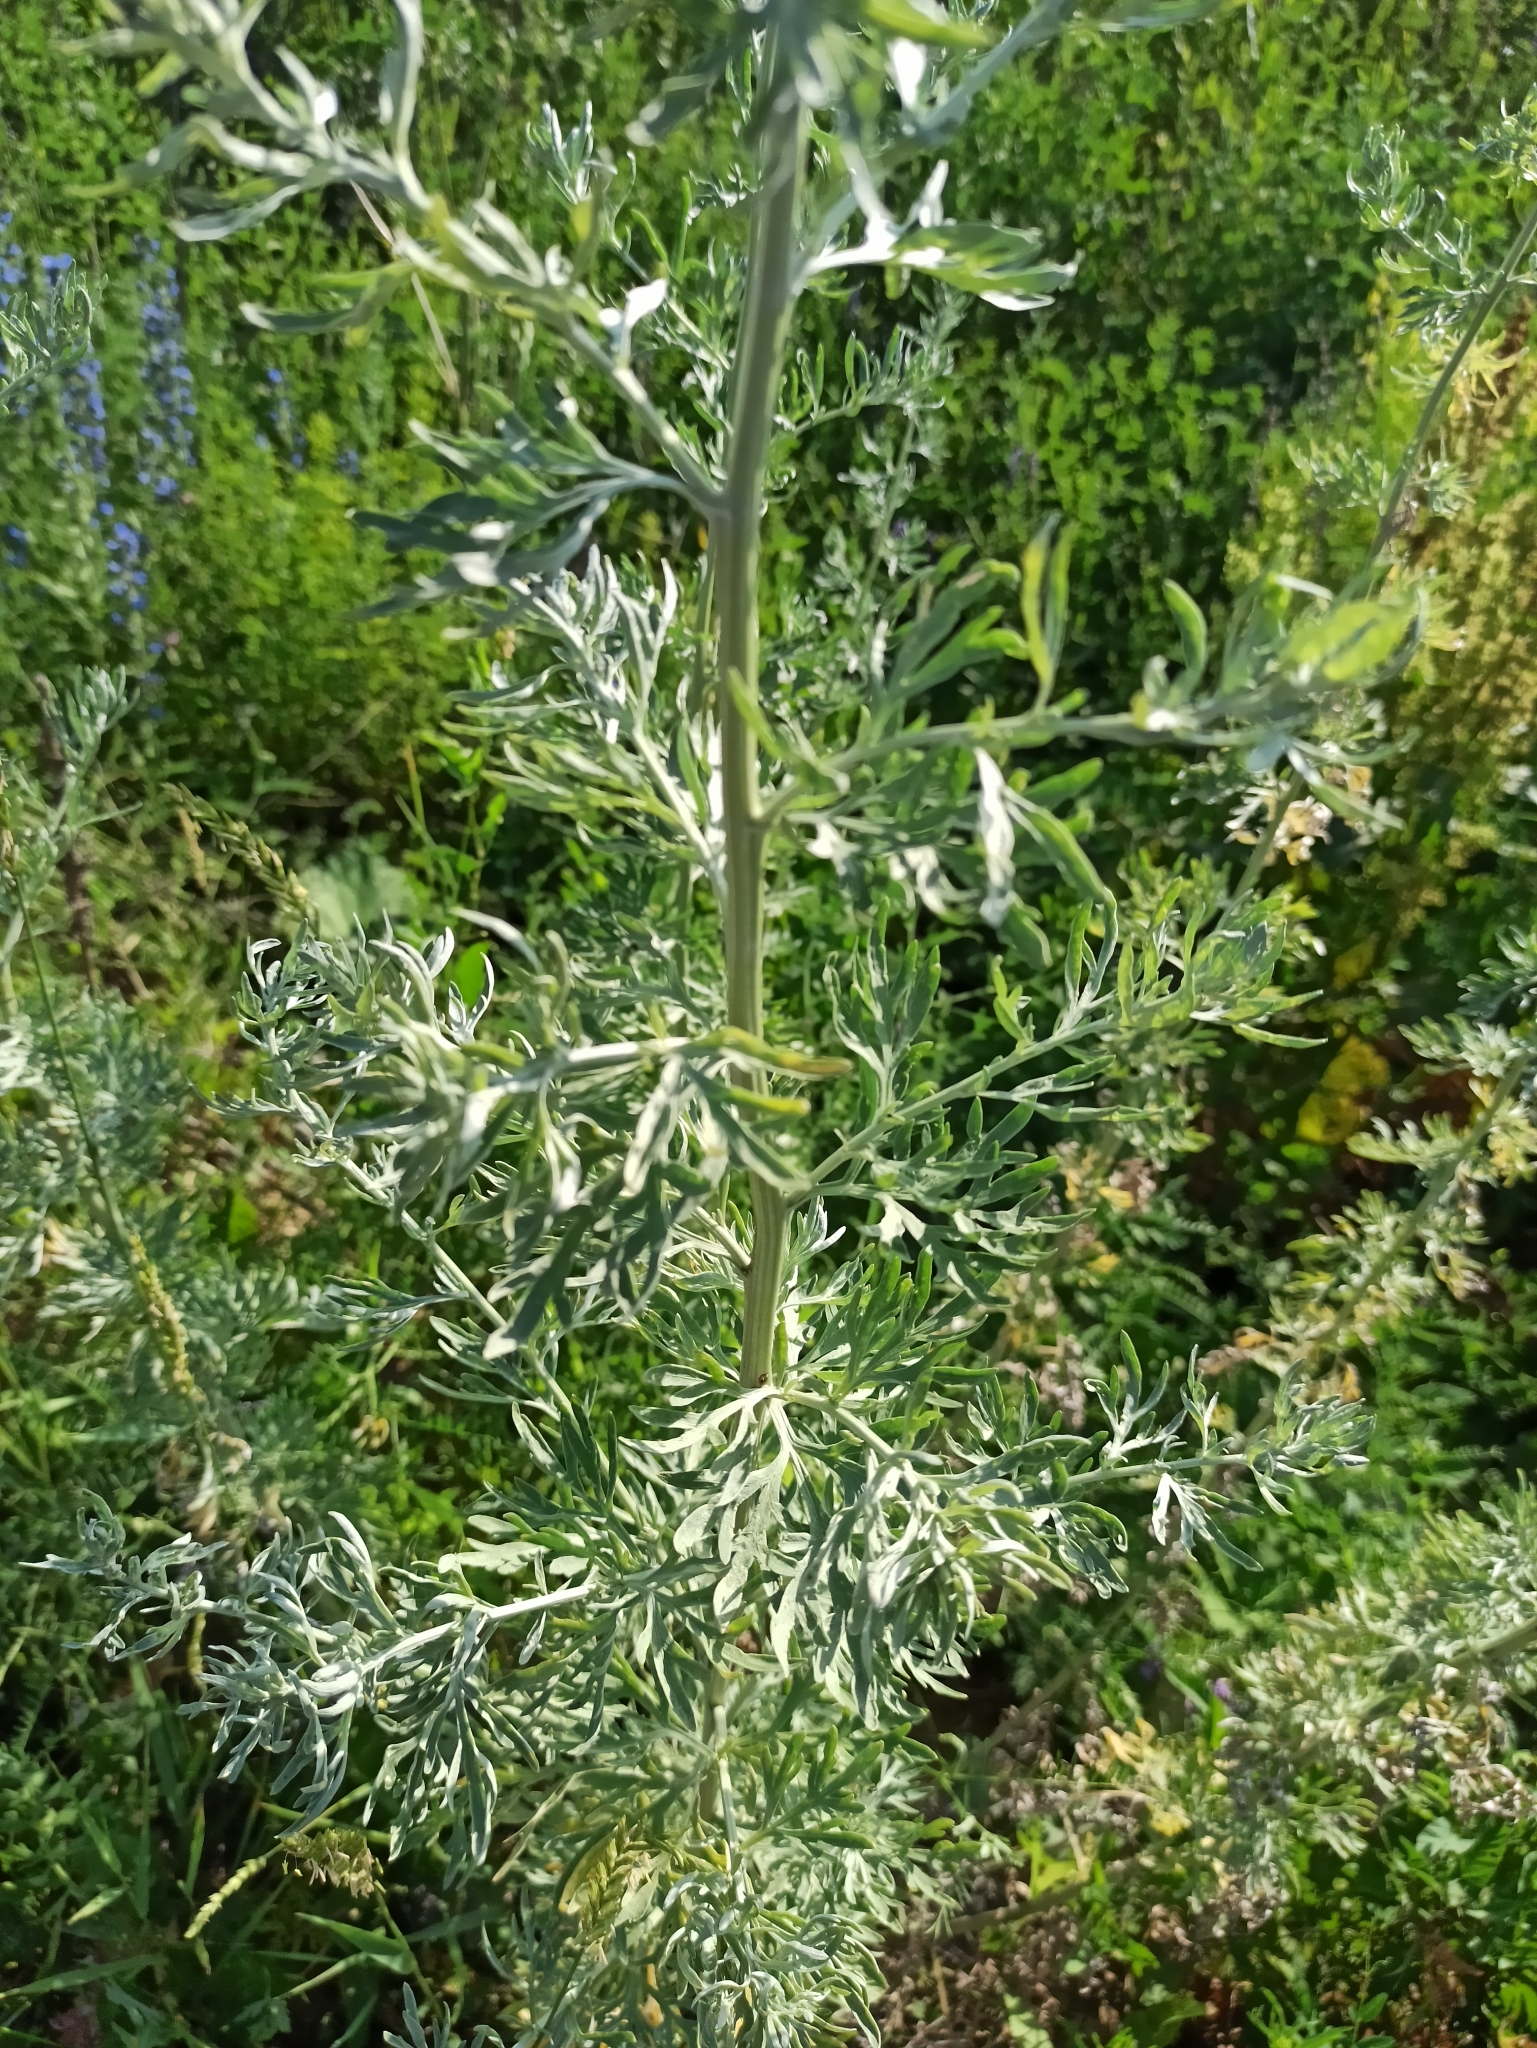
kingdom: Plantae
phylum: Tracheophyta
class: Magnoliopsida
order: Asterales
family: Asteraceae
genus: Artemisia
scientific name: Artemisia absinthium
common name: Wormwood
